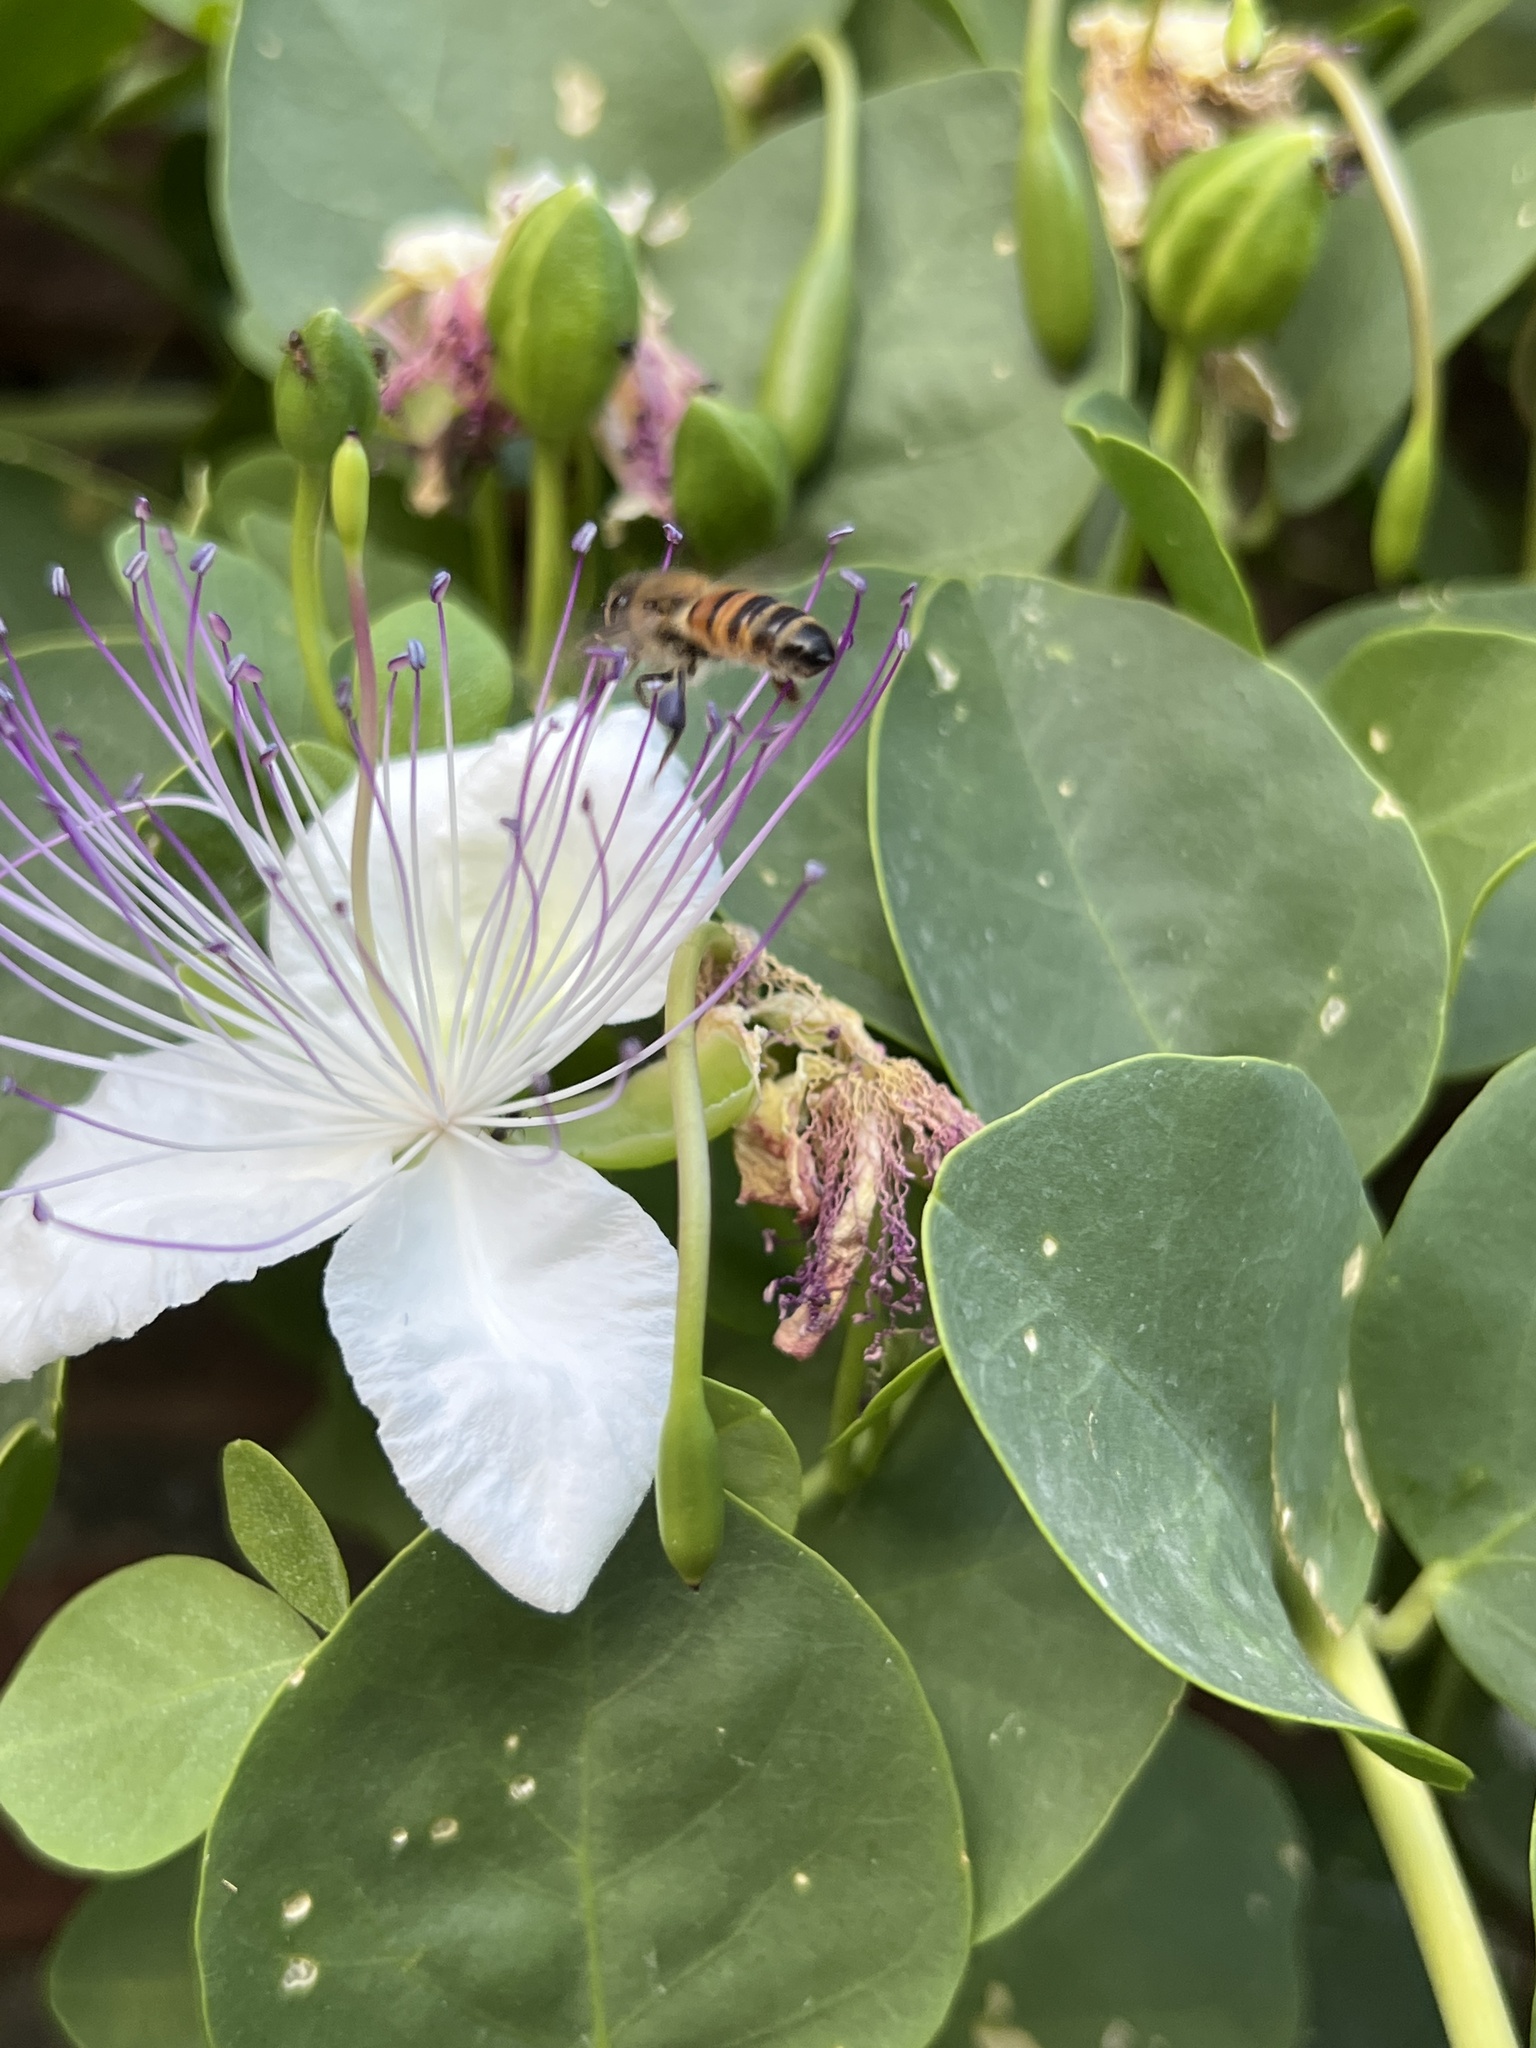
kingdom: Animalia
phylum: Arthropoda
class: Insecta
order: Hymenoptera
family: Apidae
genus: Apis
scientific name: Apis mellifera
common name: Honey bee
